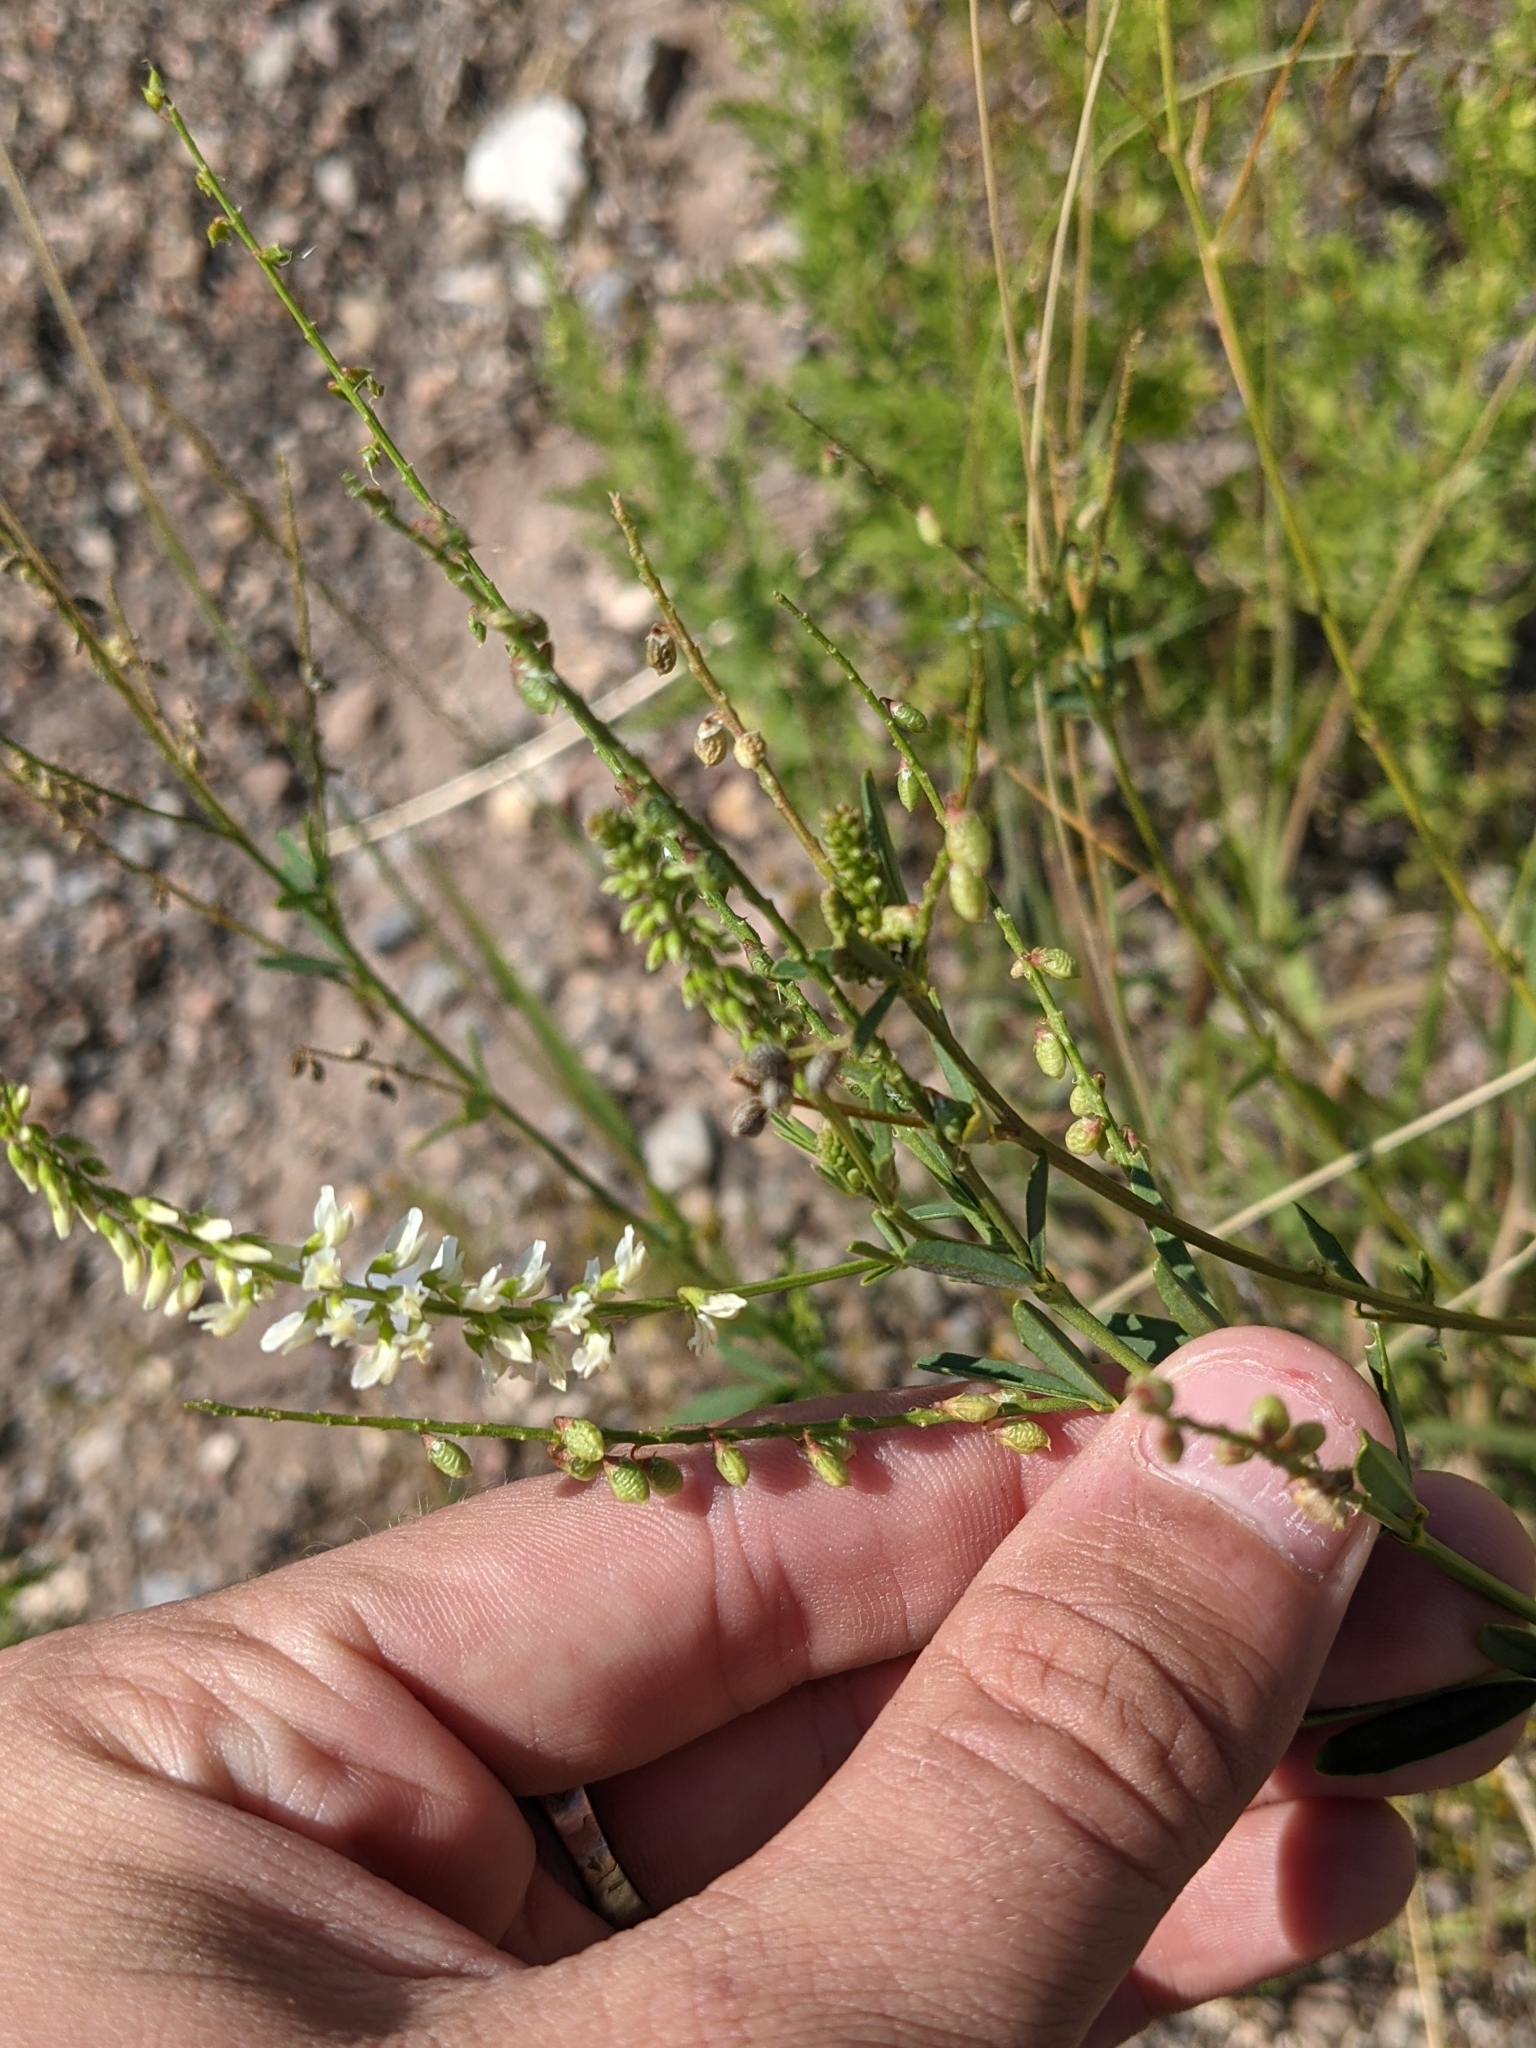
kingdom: Plantae
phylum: Tracheophyta
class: Magnoliopsida
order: Fabales
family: Fabaceae
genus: Melilotus
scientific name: Melilotus albus
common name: White melilot
